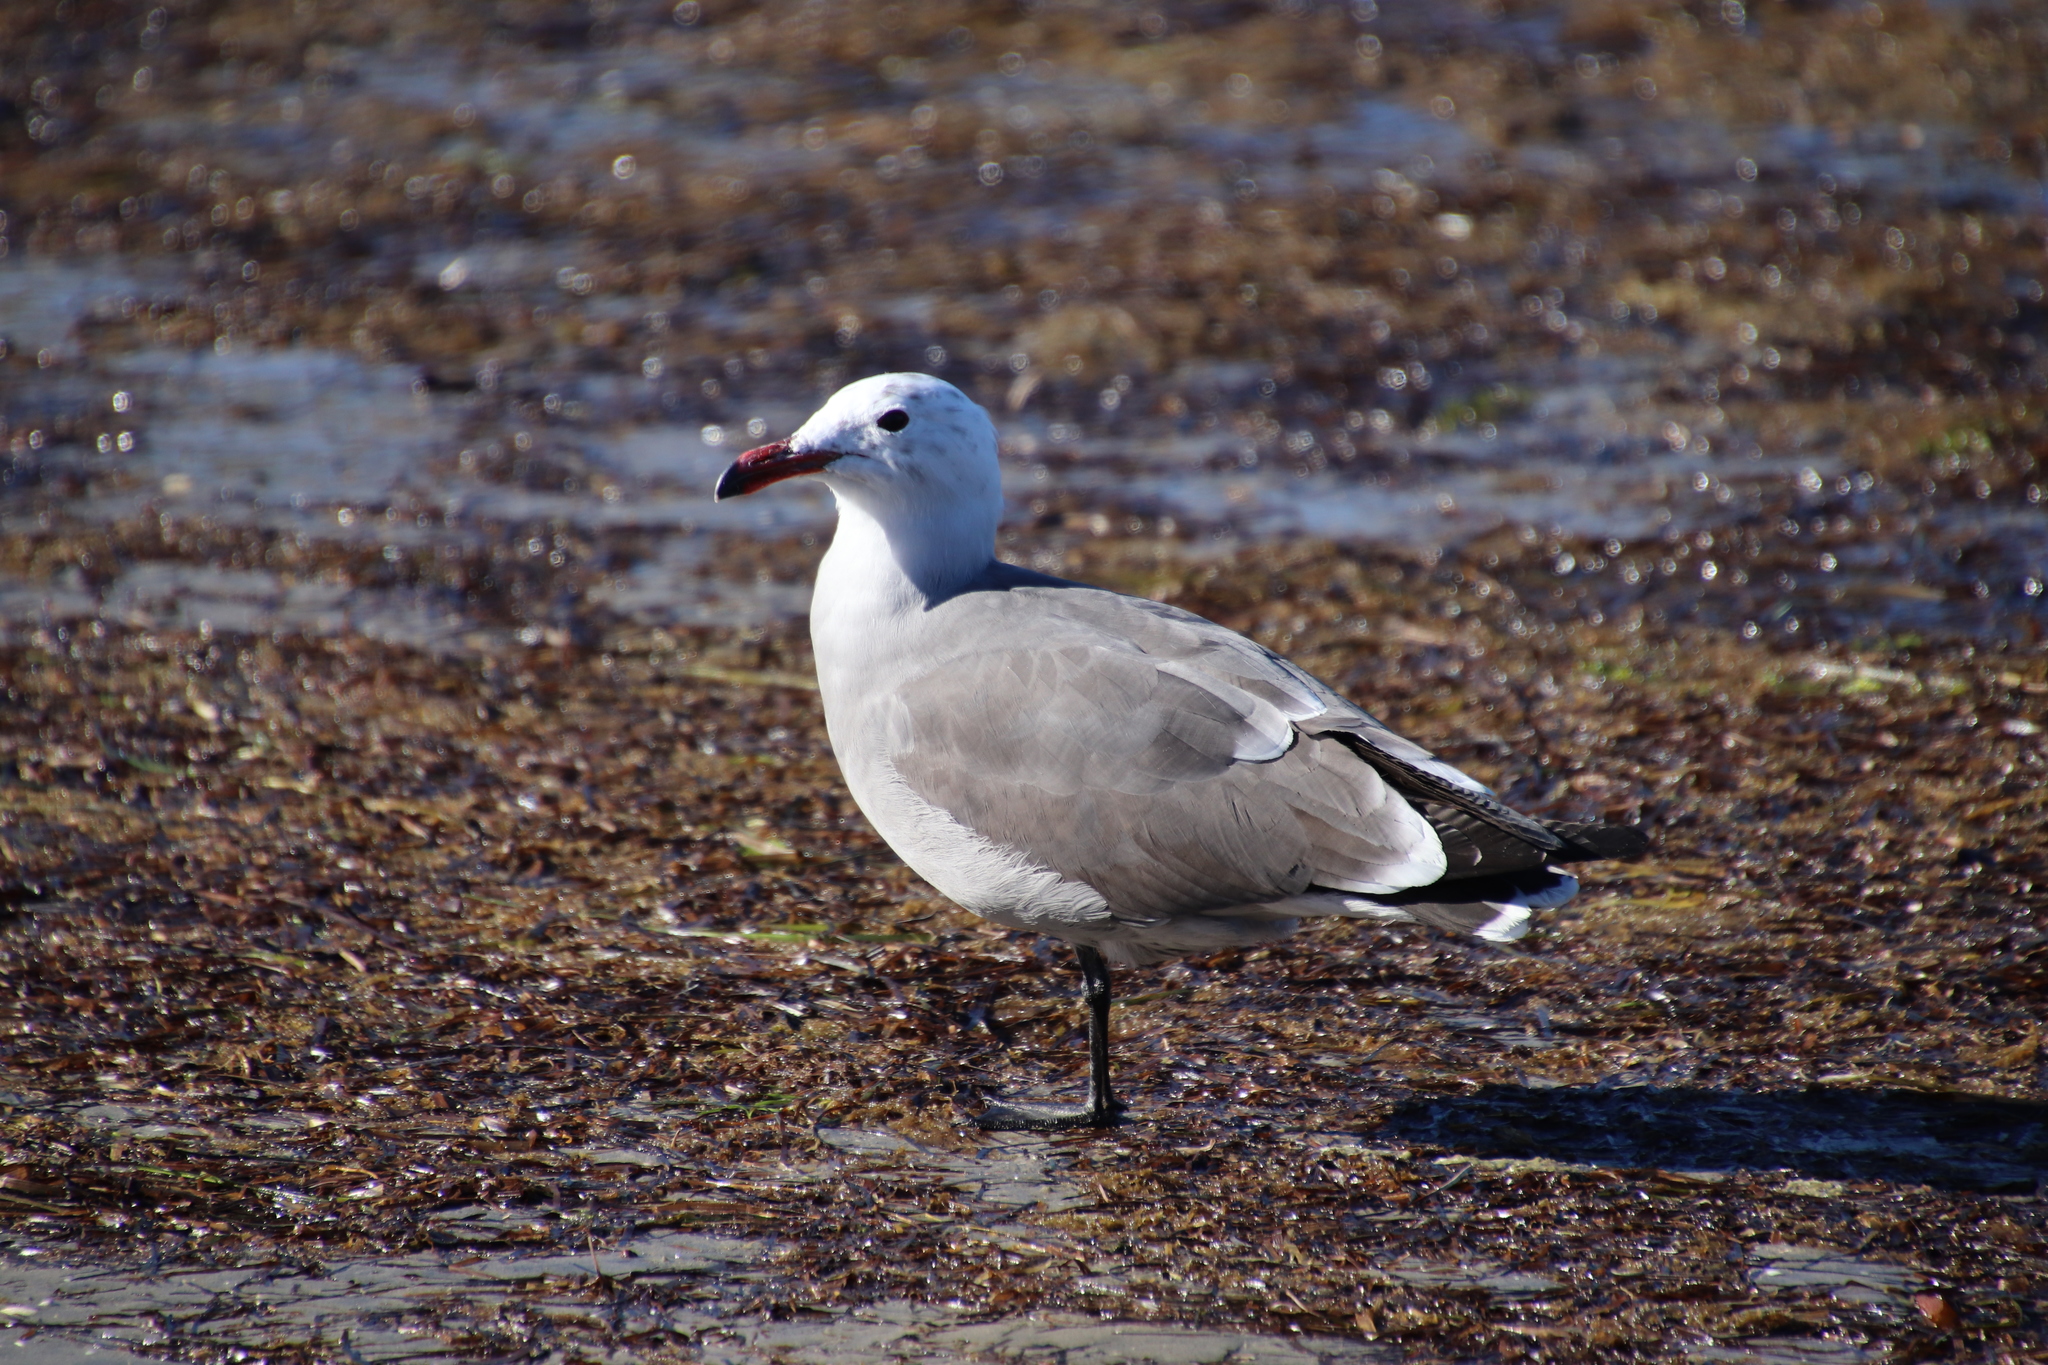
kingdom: Animalia
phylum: Chordata
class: Aves
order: Charadriiformes
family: Laridae
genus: Larus
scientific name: Larus heermanni
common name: Heermann's gull
